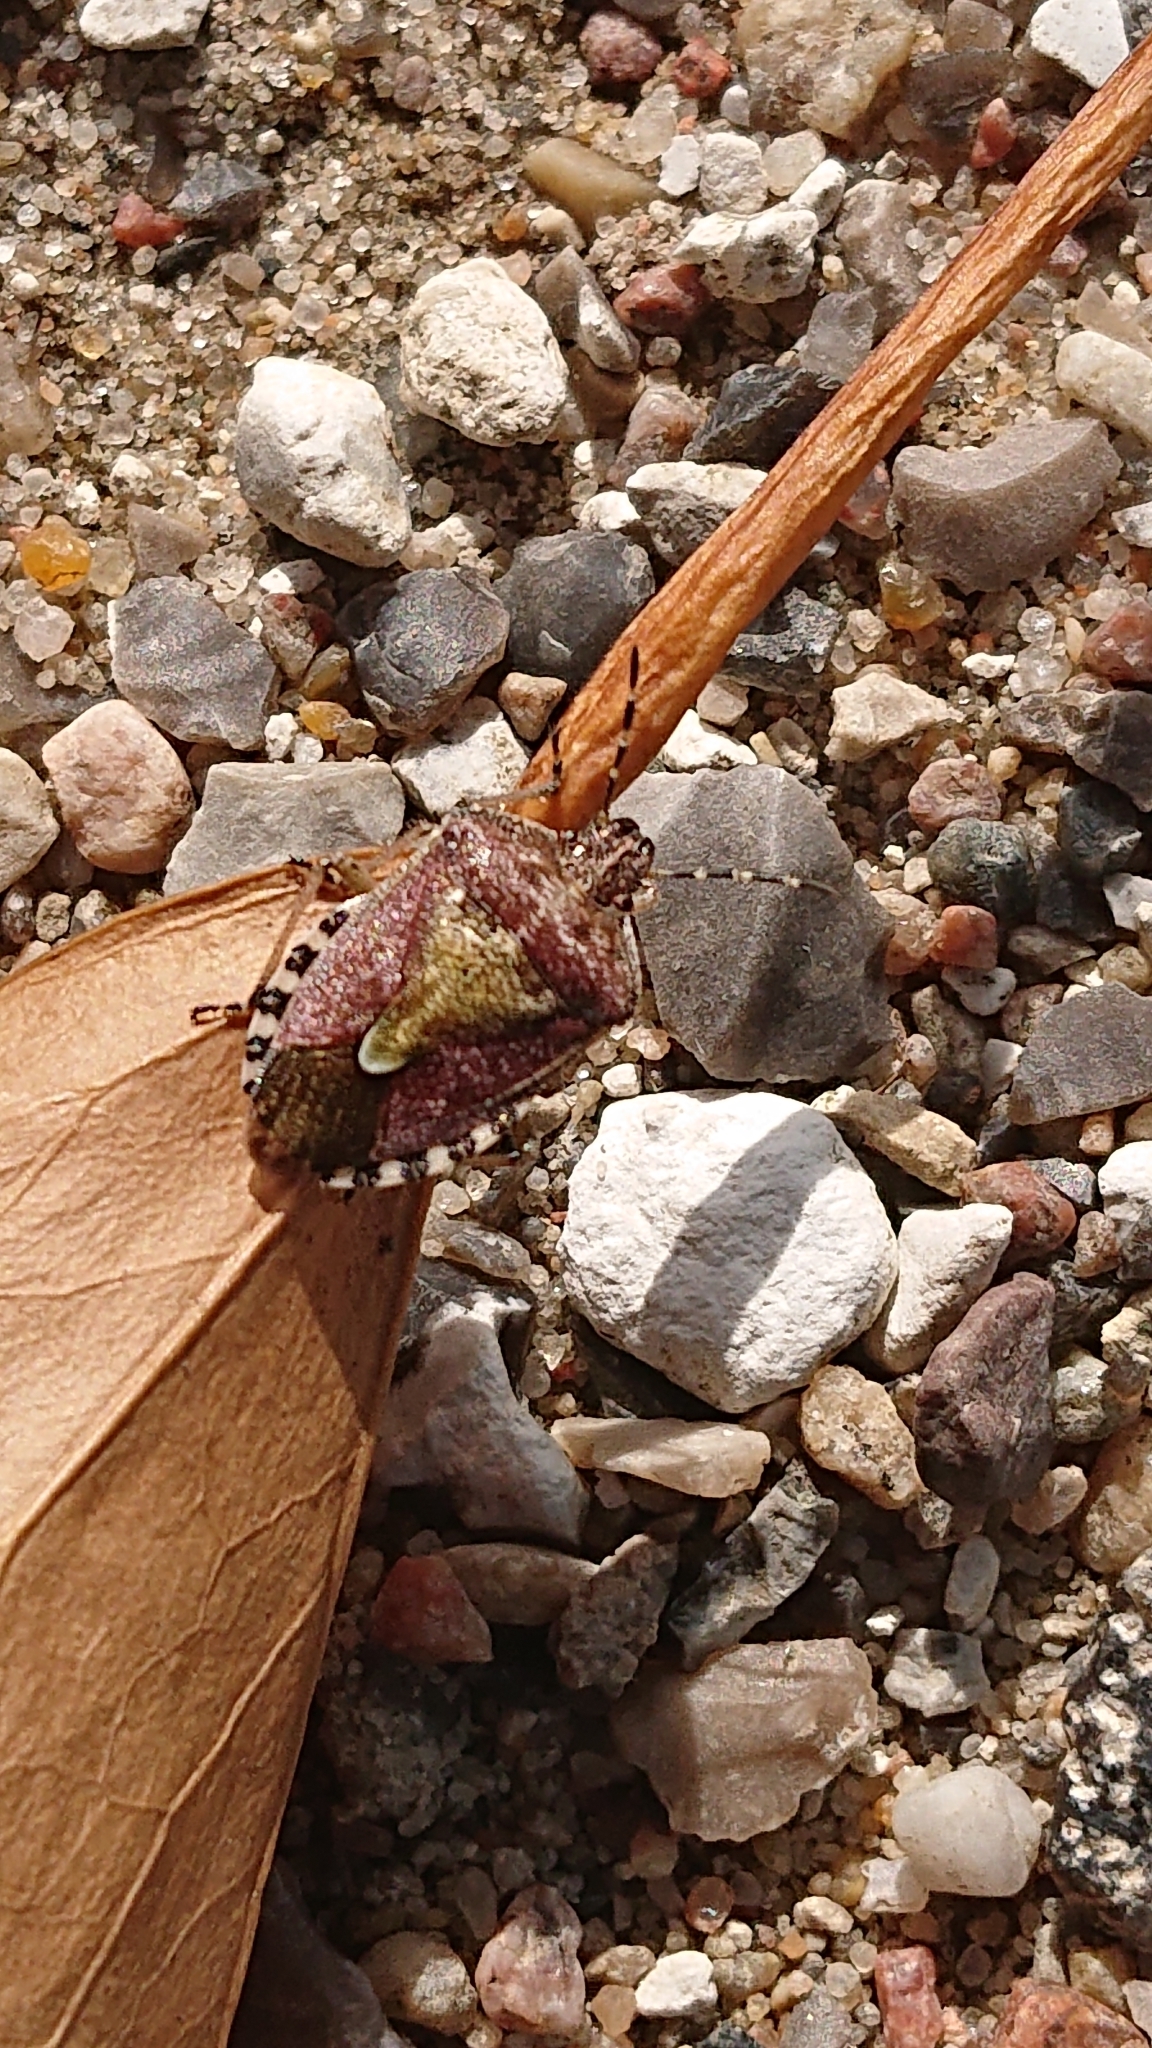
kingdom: Animalia
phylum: Arthropoda
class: Insecta
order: Hemiptera
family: Pentatomidae
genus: Dolycoris
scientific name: Dolycoris baccarum
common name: Sloe bug
